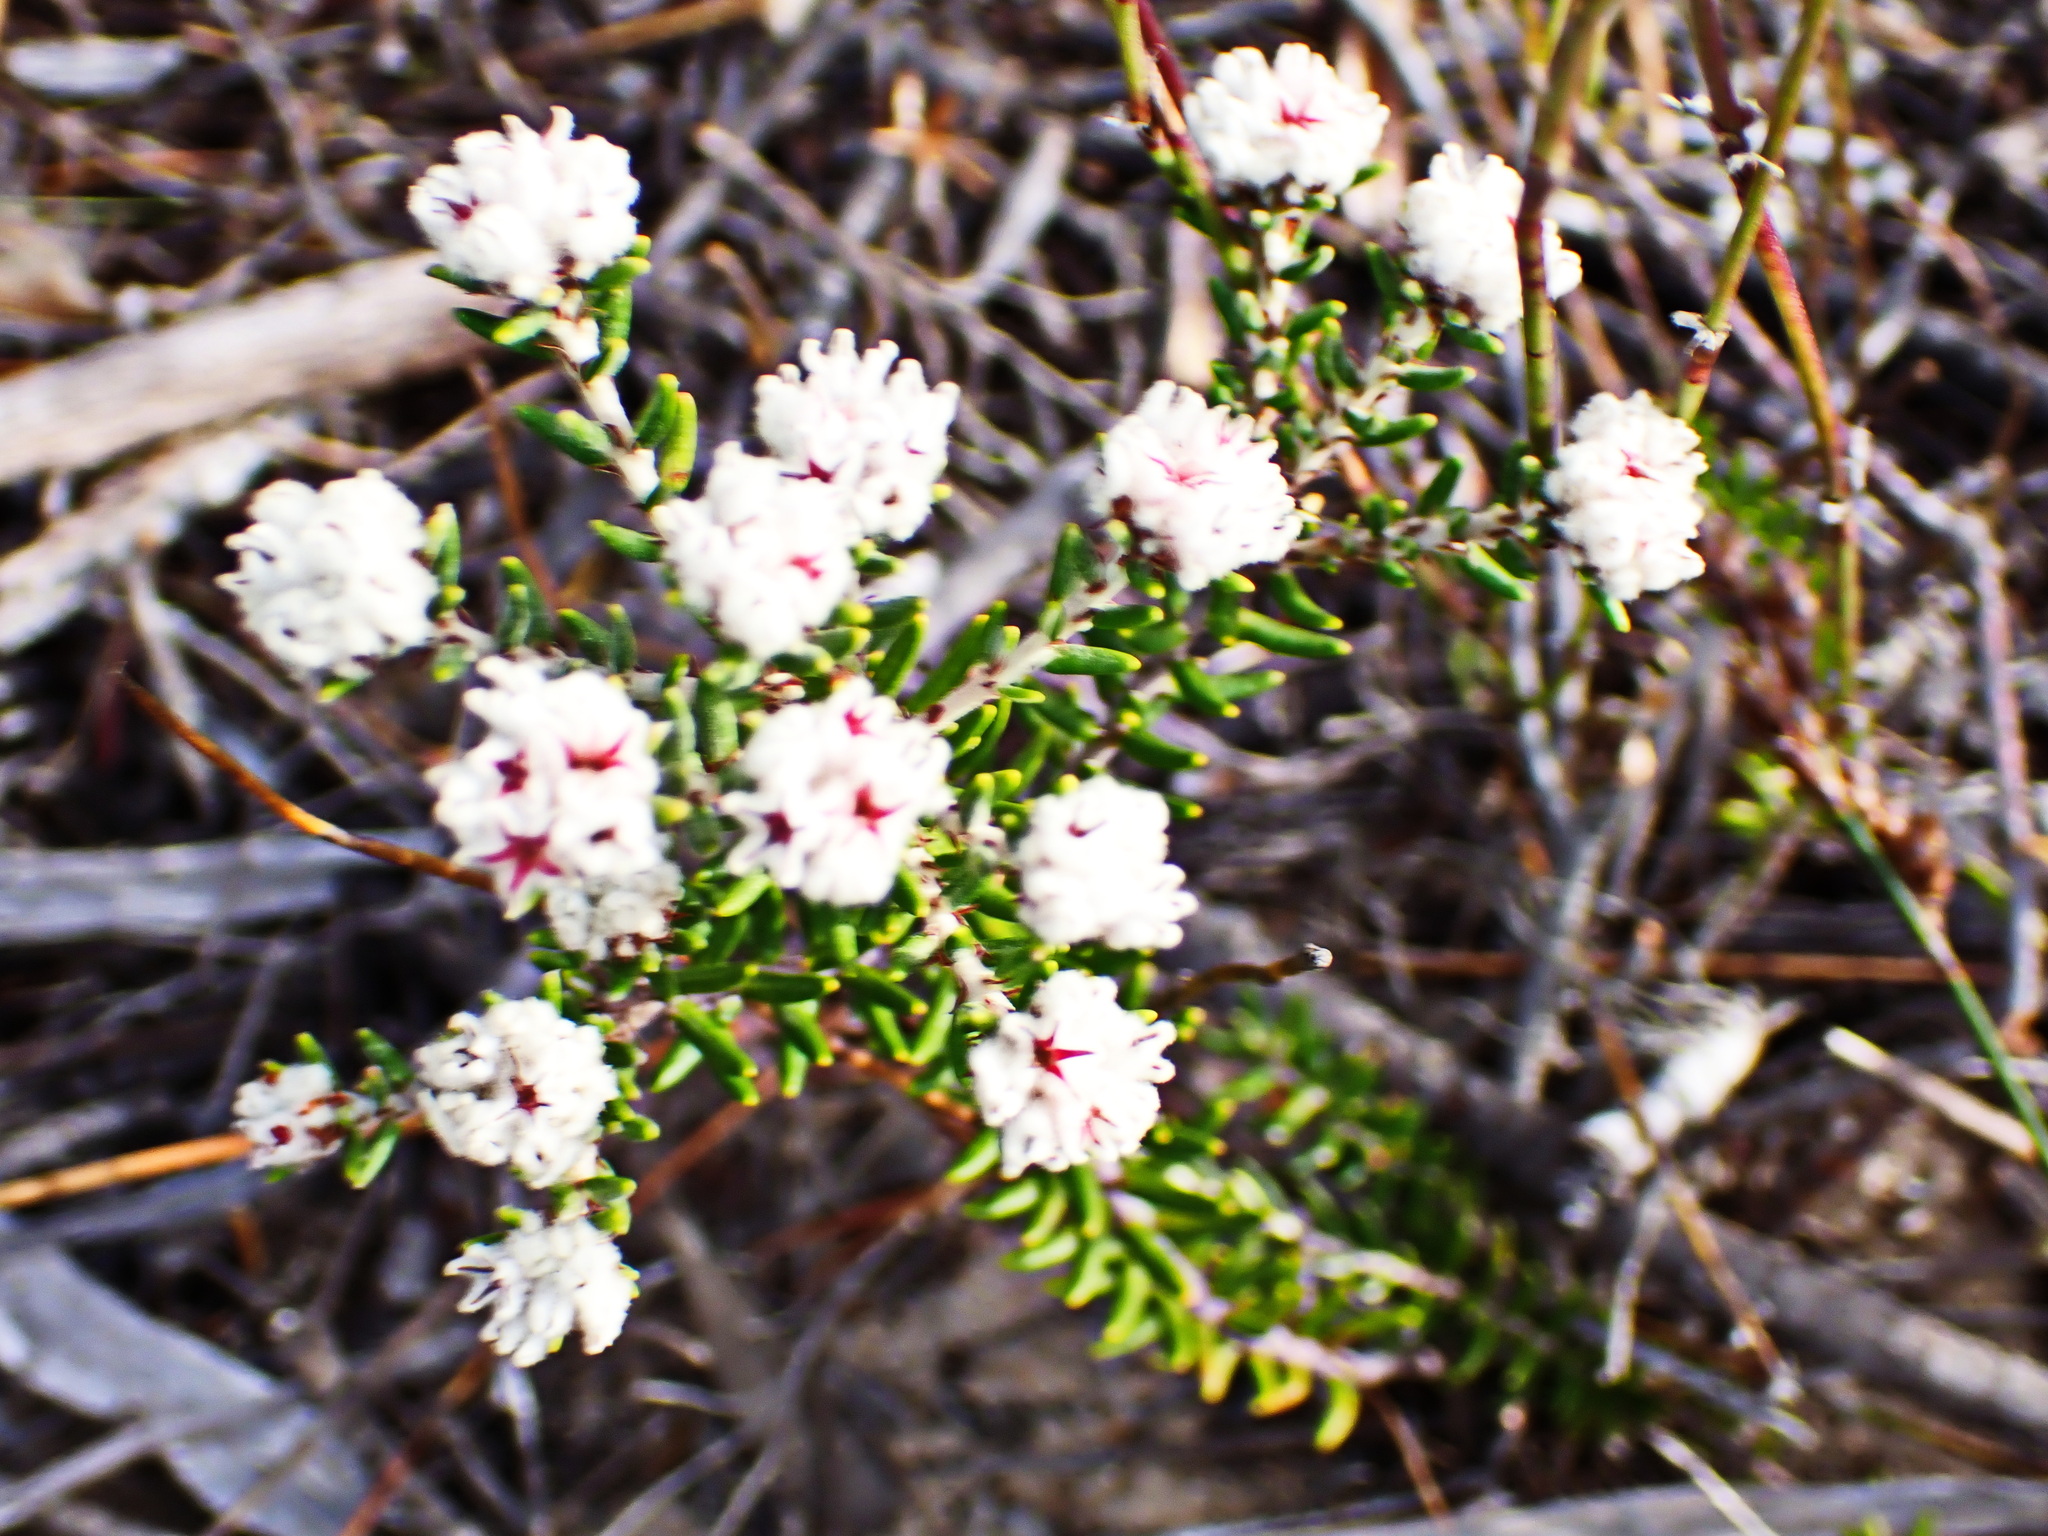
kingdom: Plantae
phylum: Tracheophyta
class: Magnoliopsida
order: Rosales
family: Rhamnaceae
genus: Phylica
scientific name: Phylica ericoides
